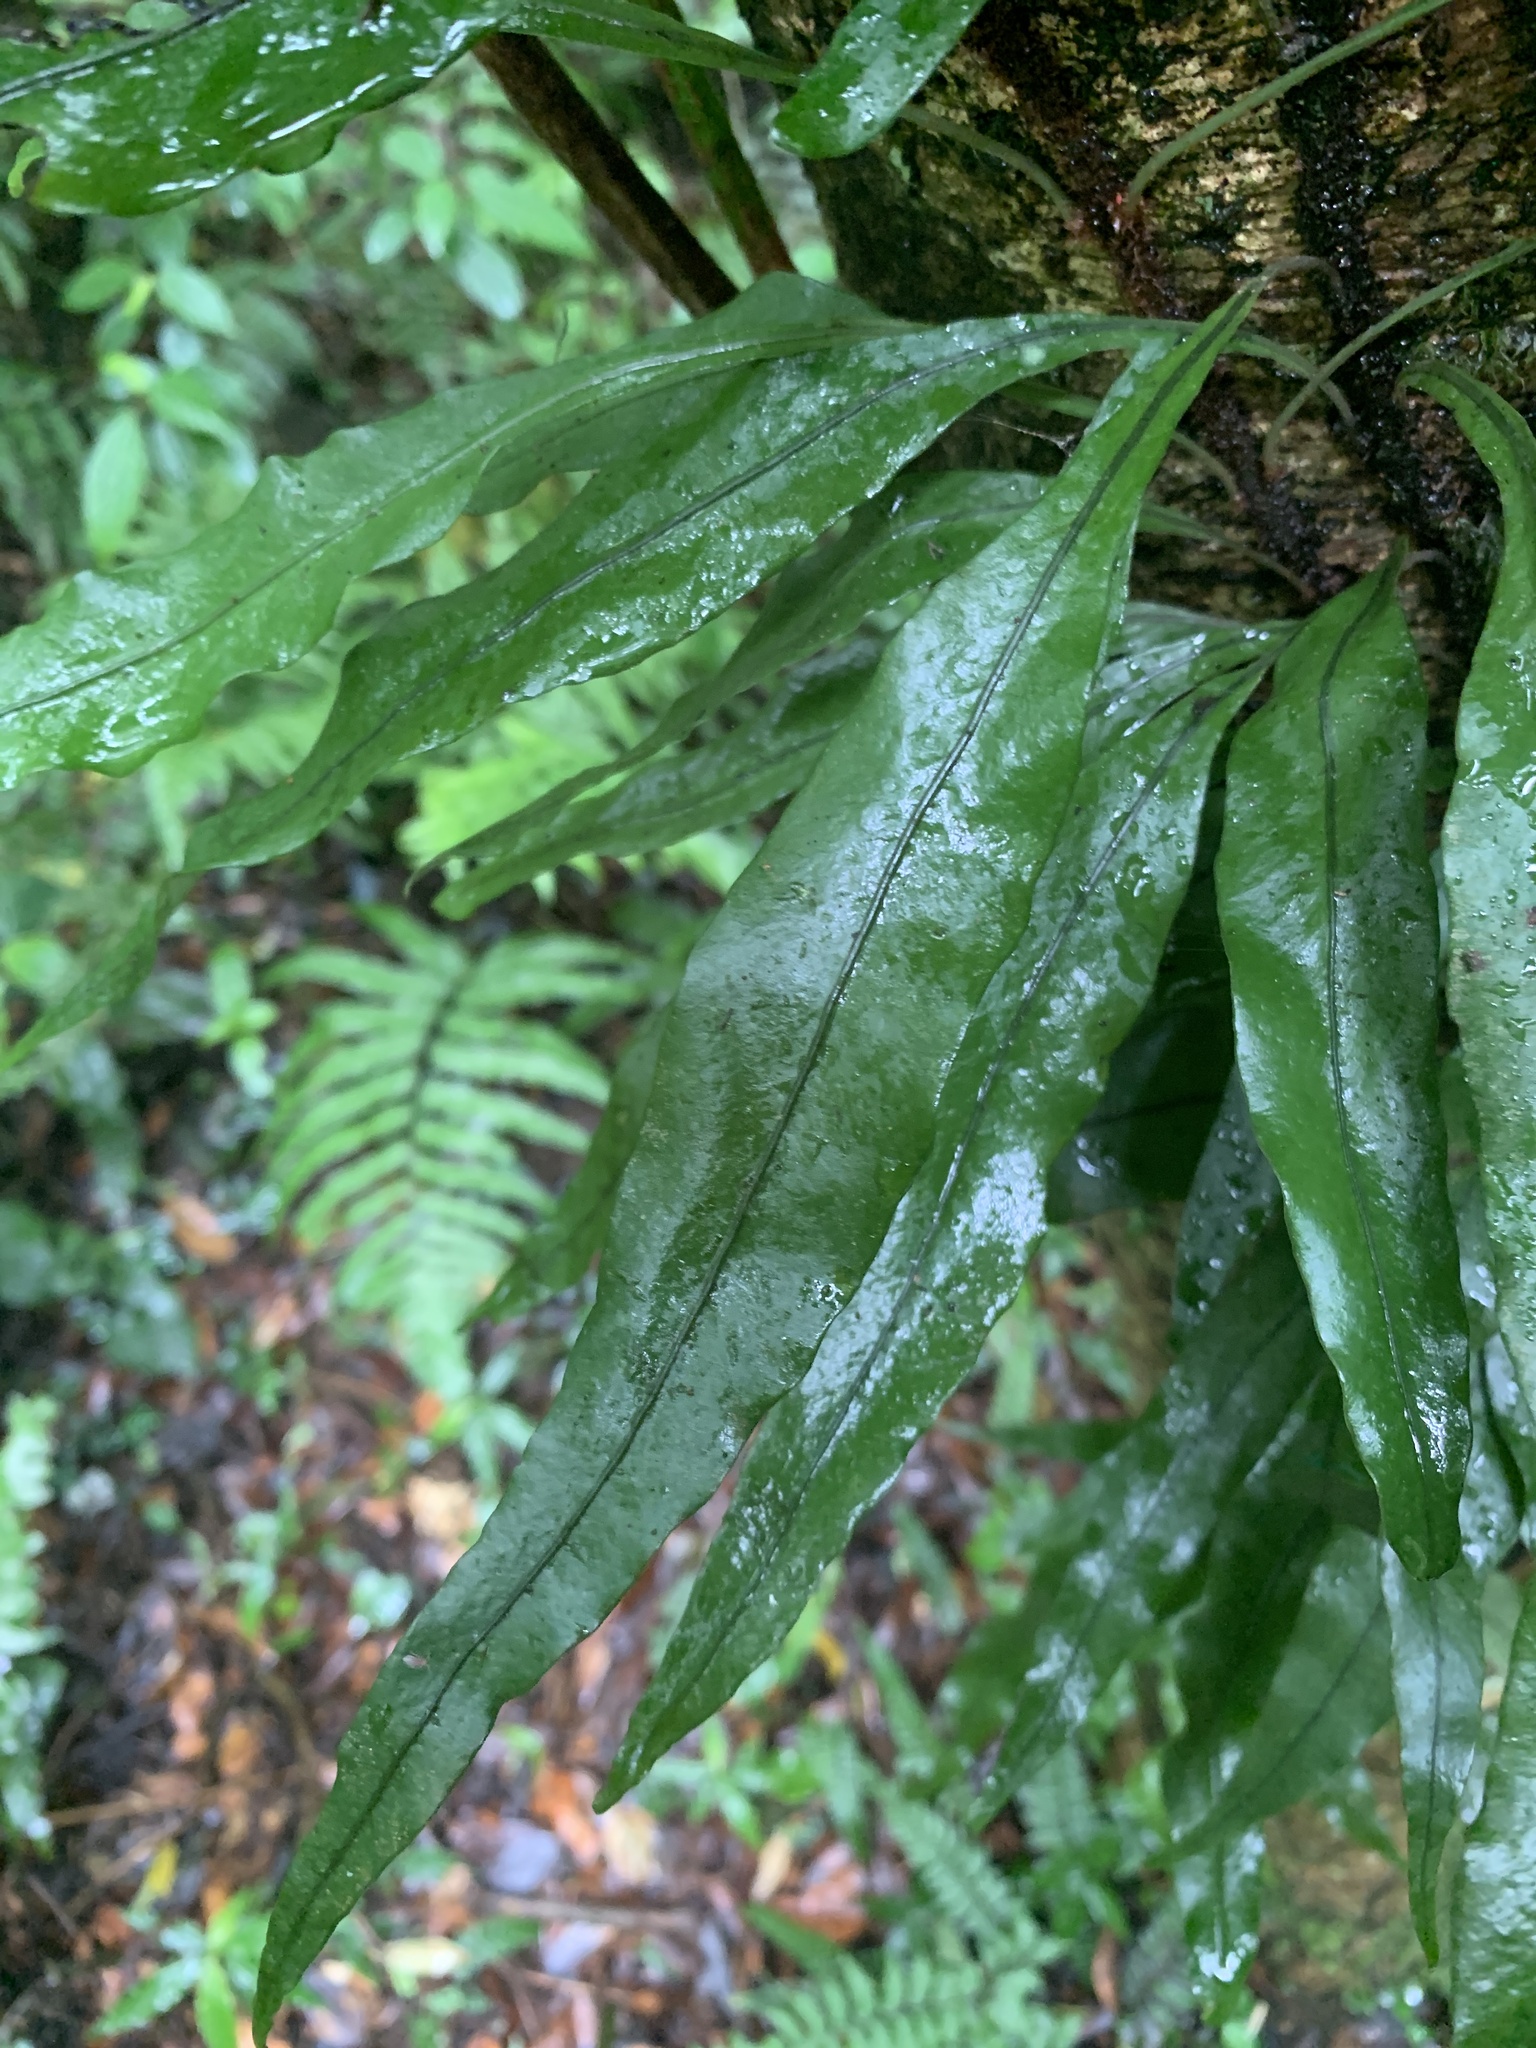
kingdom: Plantae
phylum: Tracheophyta
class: Polypodiopsida
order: Polypodiales
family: Polypodiaceae
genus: Lepisorus
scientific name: Lepisorus superficialis
